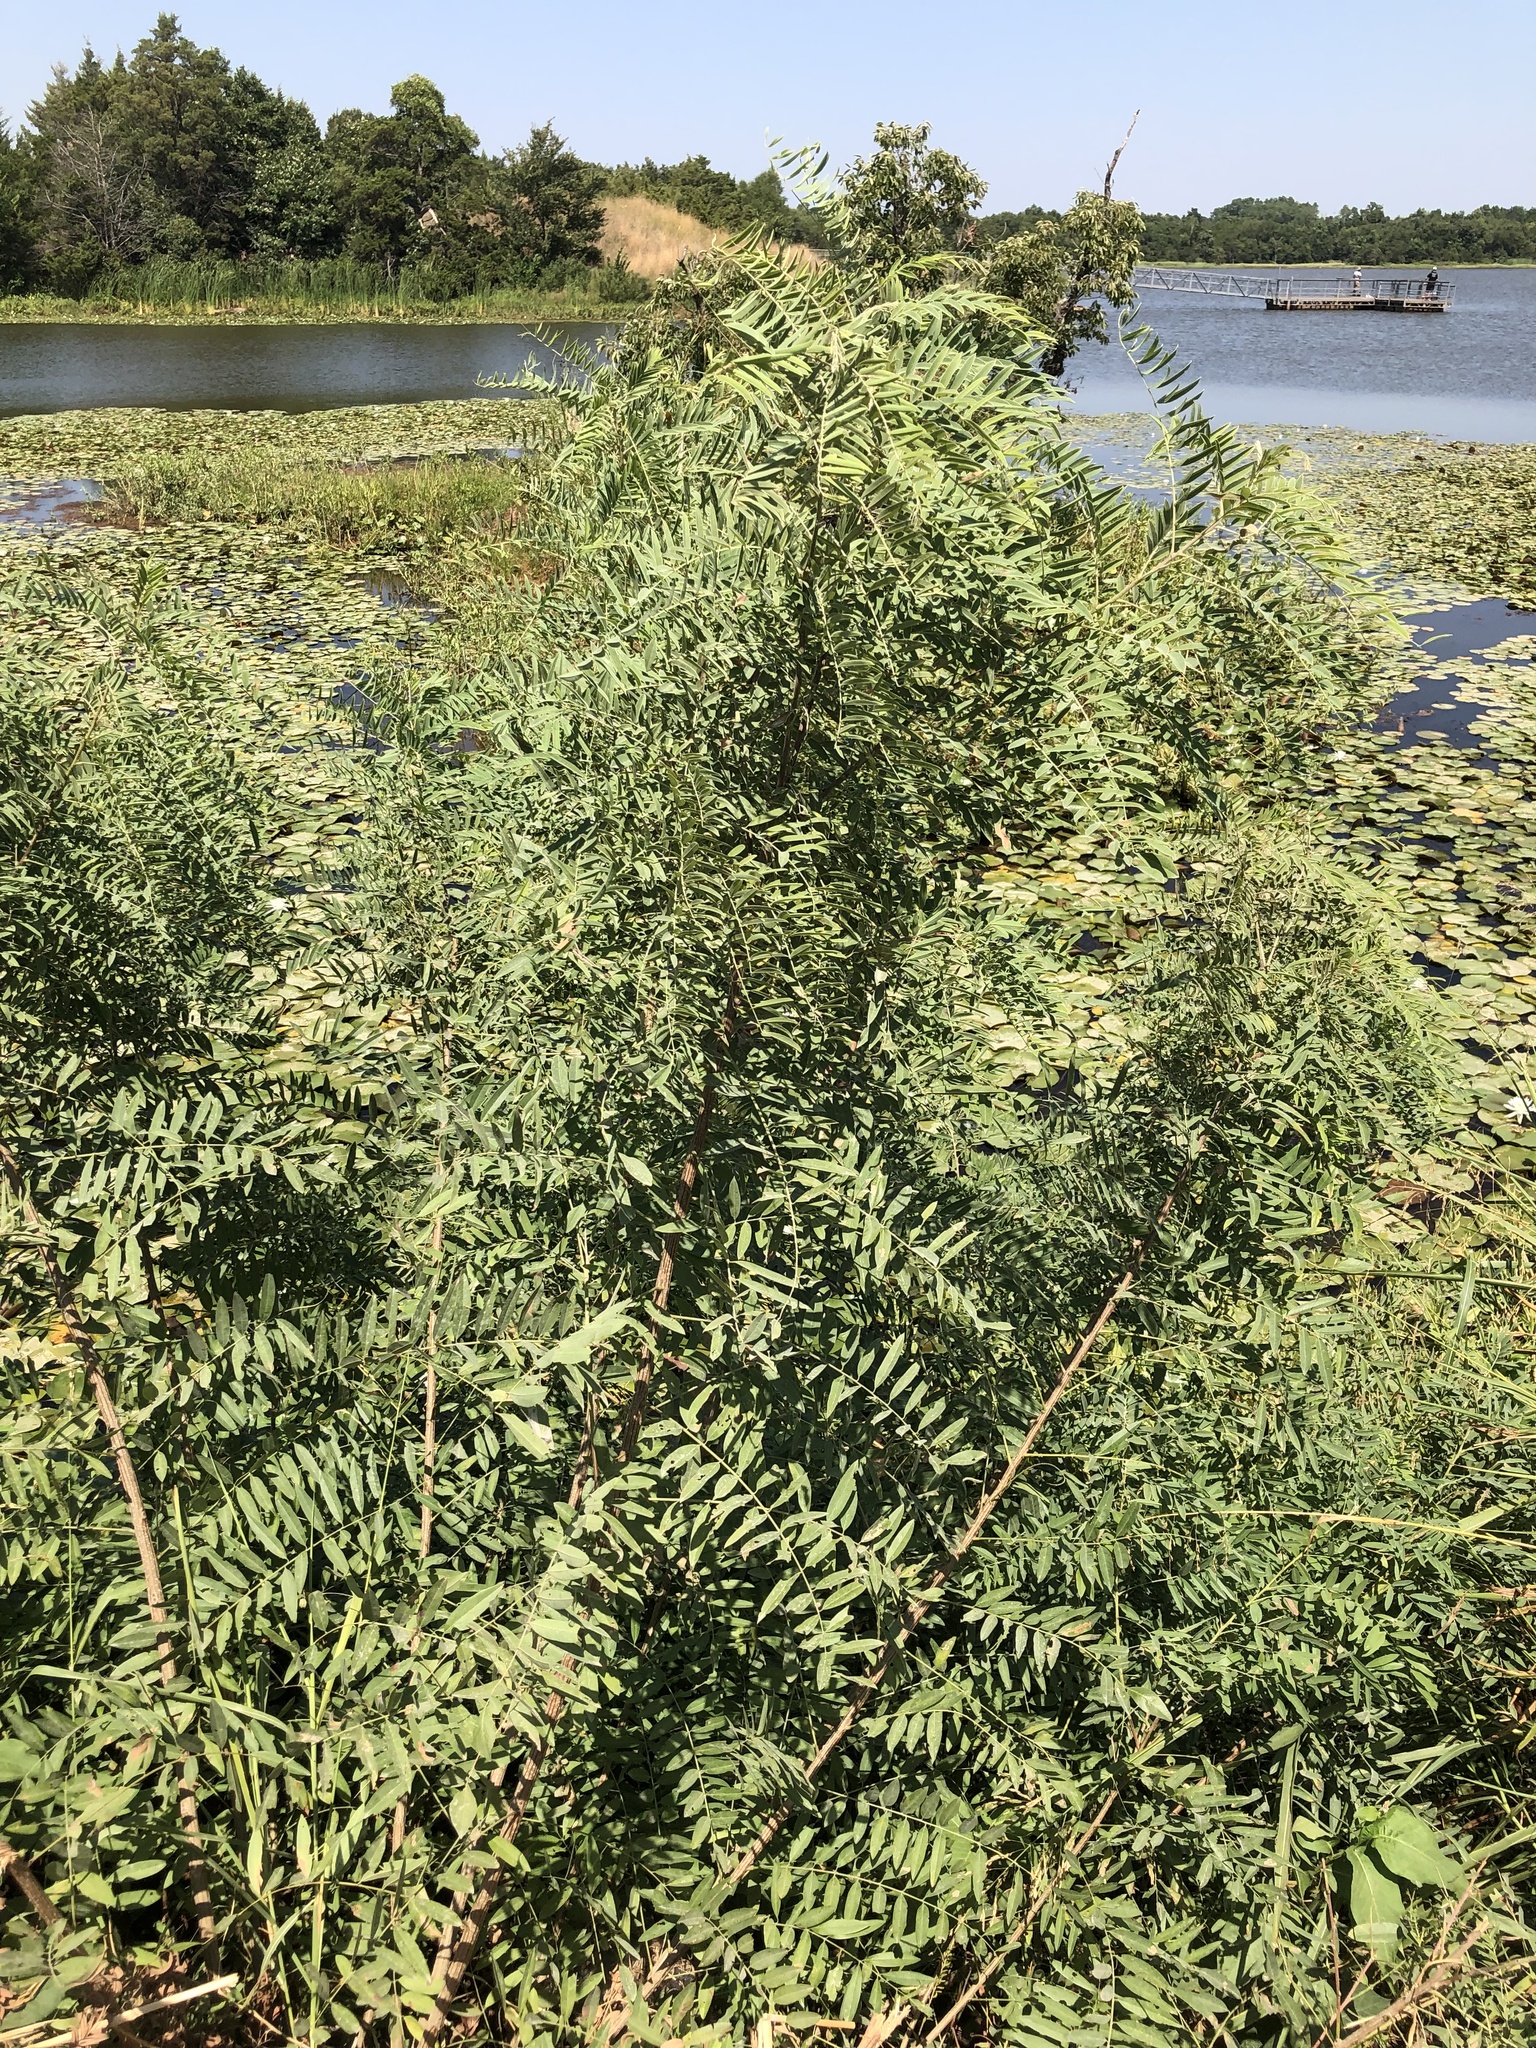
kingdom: Plantae
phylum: Tracheophyta
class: Magnoliopsida
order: Fabales
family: Fabaceae
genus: Amorpha
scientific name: Amorpha fruticosa
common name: False indigo
